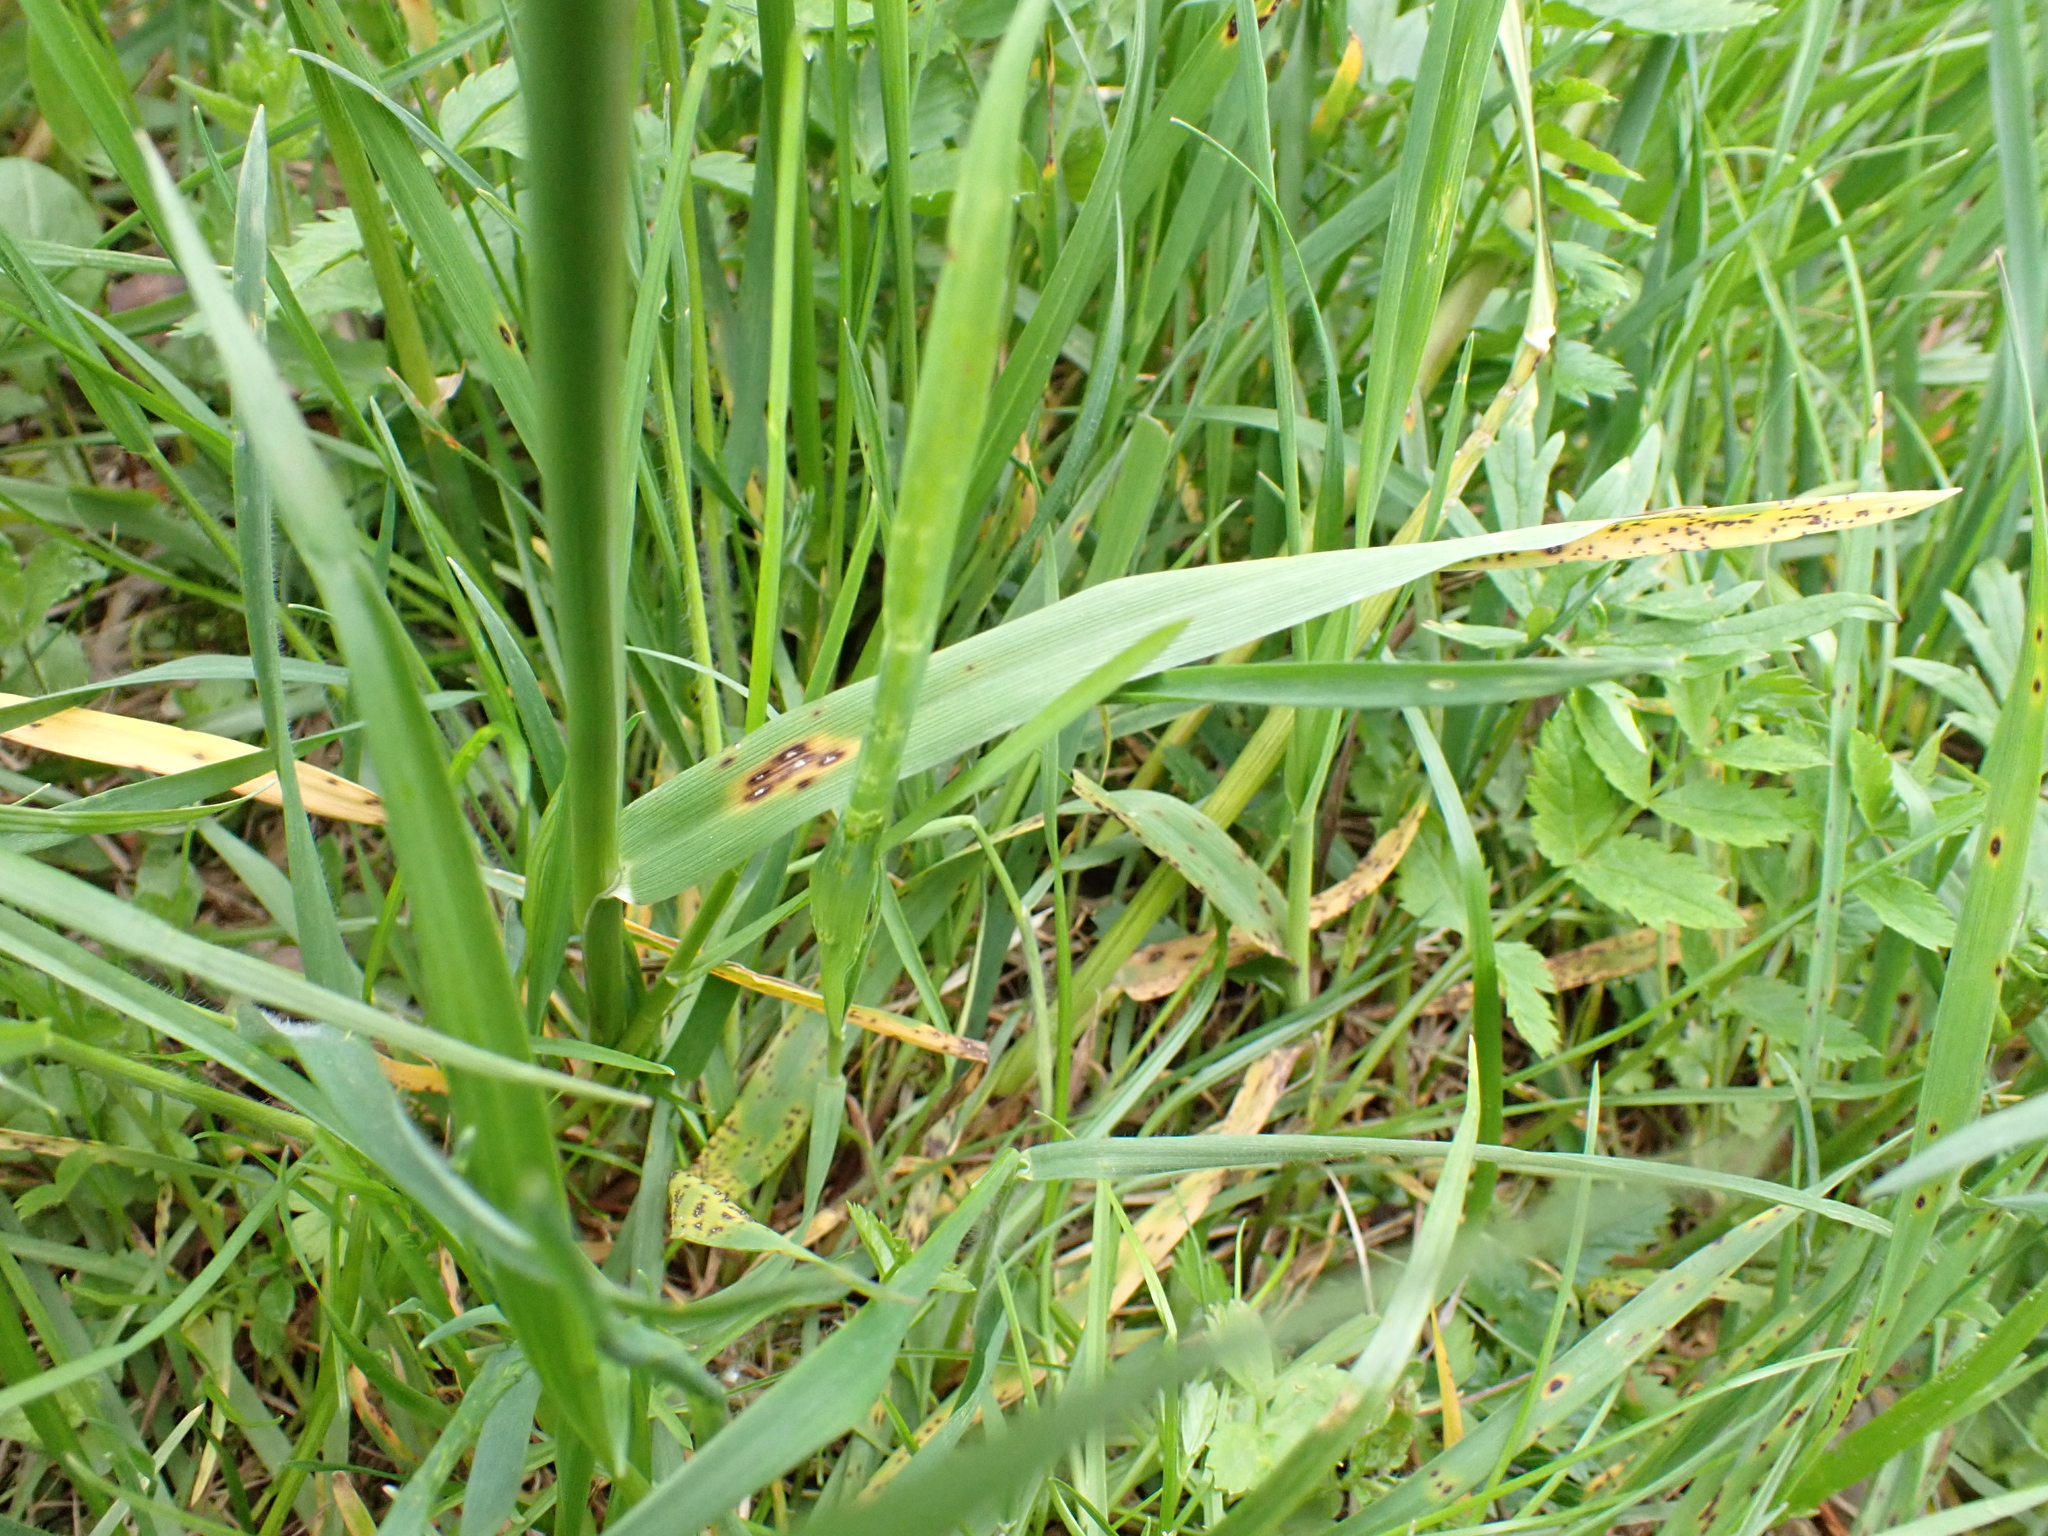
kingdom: Plantae
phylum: Tracheophyta
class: Liliopsida
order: Poales
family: Poaceae
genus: Alopecurus
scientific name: Alopecurus pratensis
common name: Meadow foxtail
